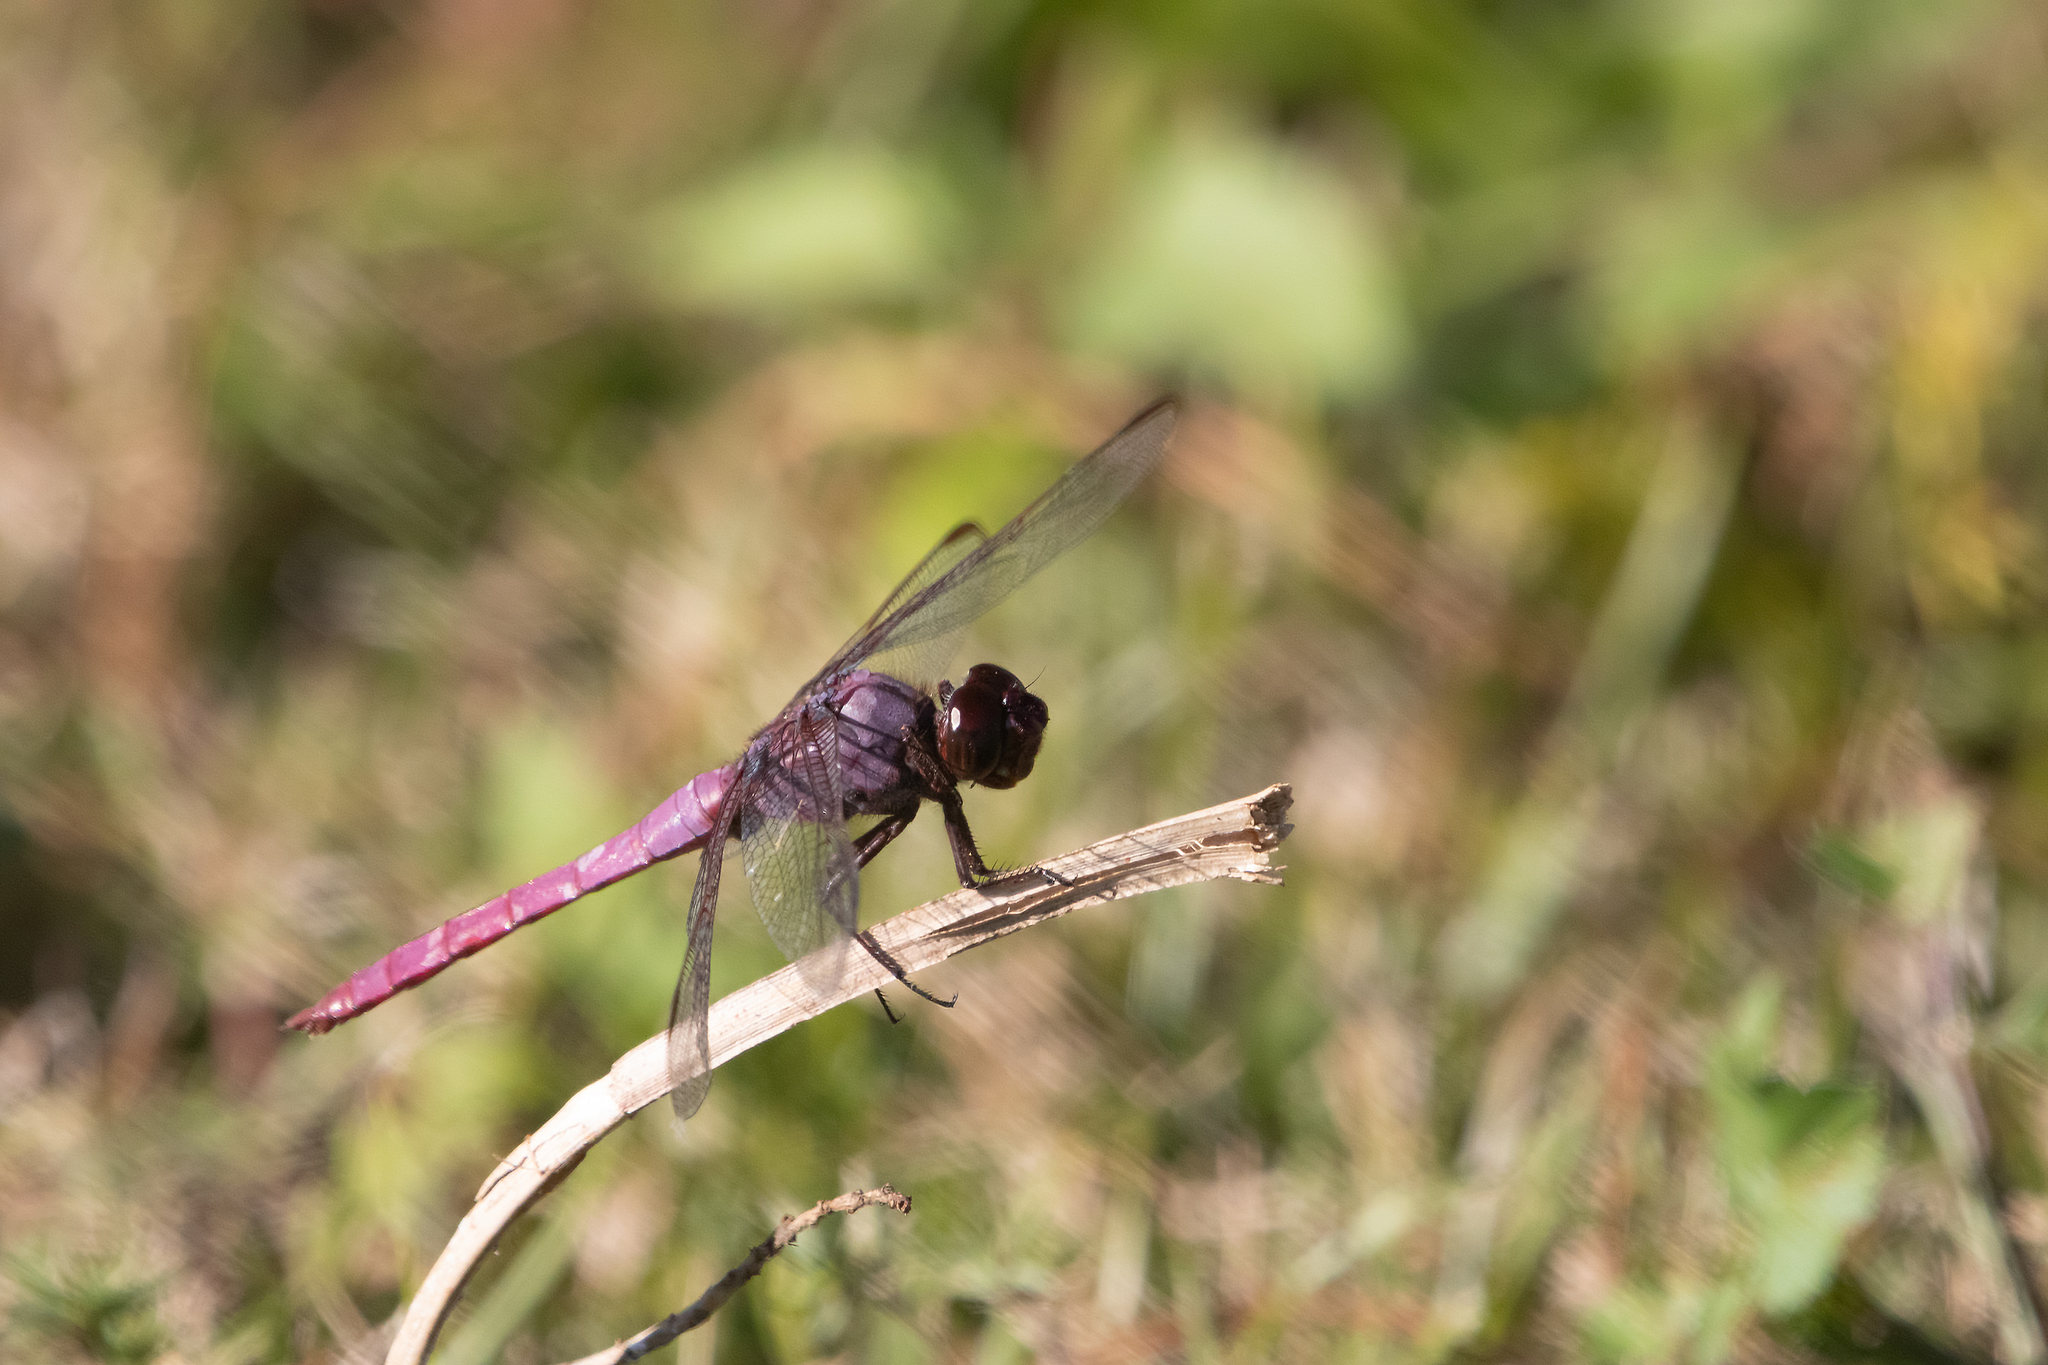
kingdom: Animalia
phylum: Arthropoda
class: Insecta
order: Odonata
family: Libellulidae
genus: Orthemis
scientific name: Orthemis ferruginea
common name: Roseate skimmer
